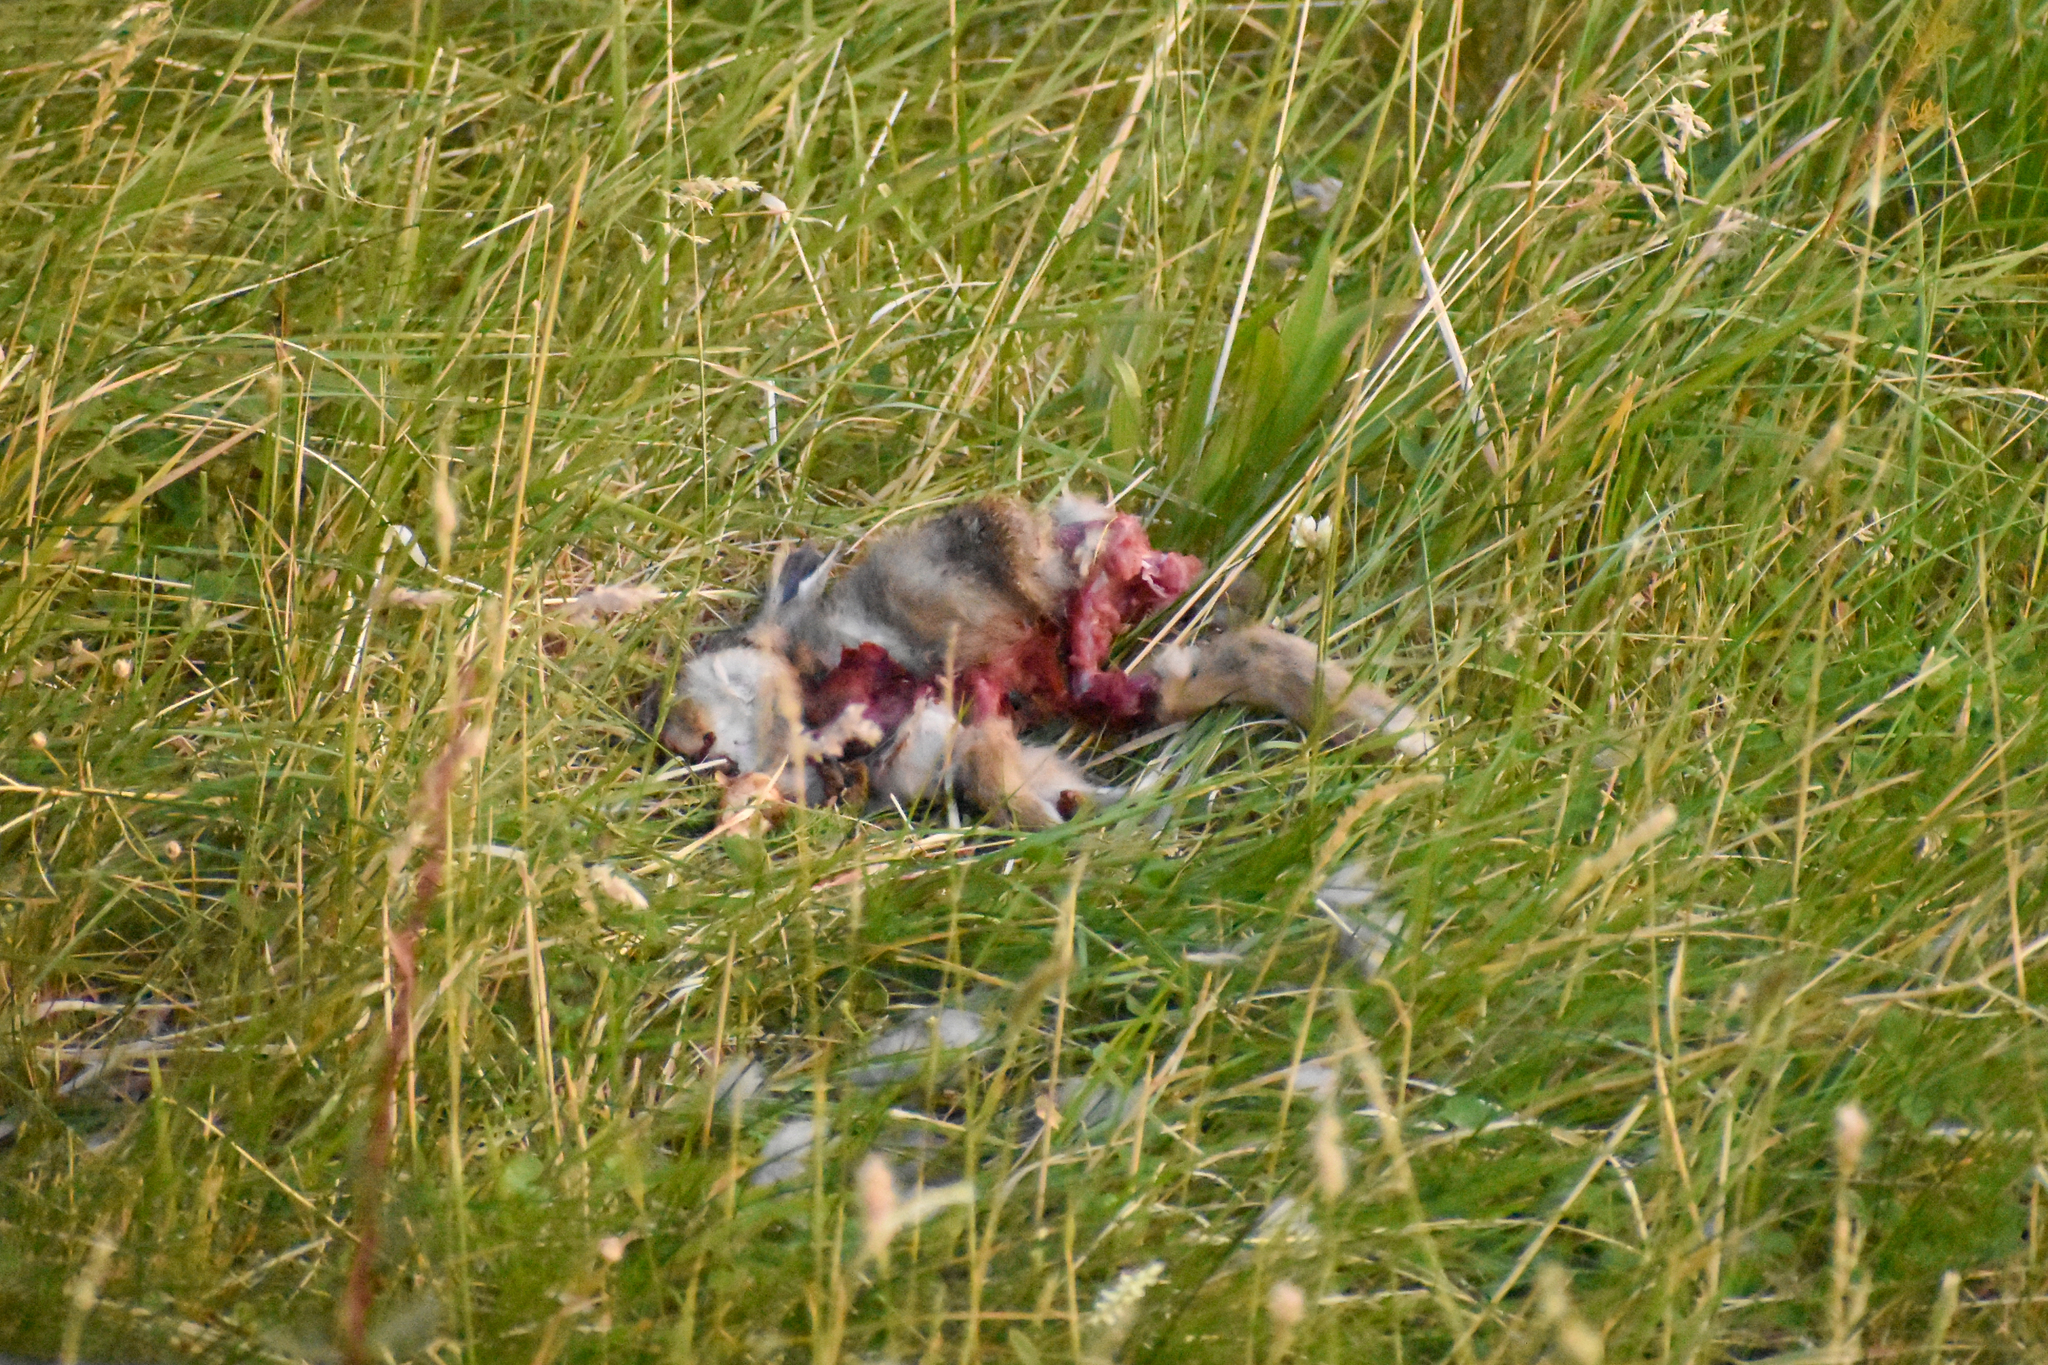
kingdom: Animalia
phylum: Chordata
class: Aves
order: Accipitriformes
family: Accipitridae
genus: Geranoaetus
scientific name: Geranoaetus melanoleucus
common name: Black-chested buzzard-eagle
